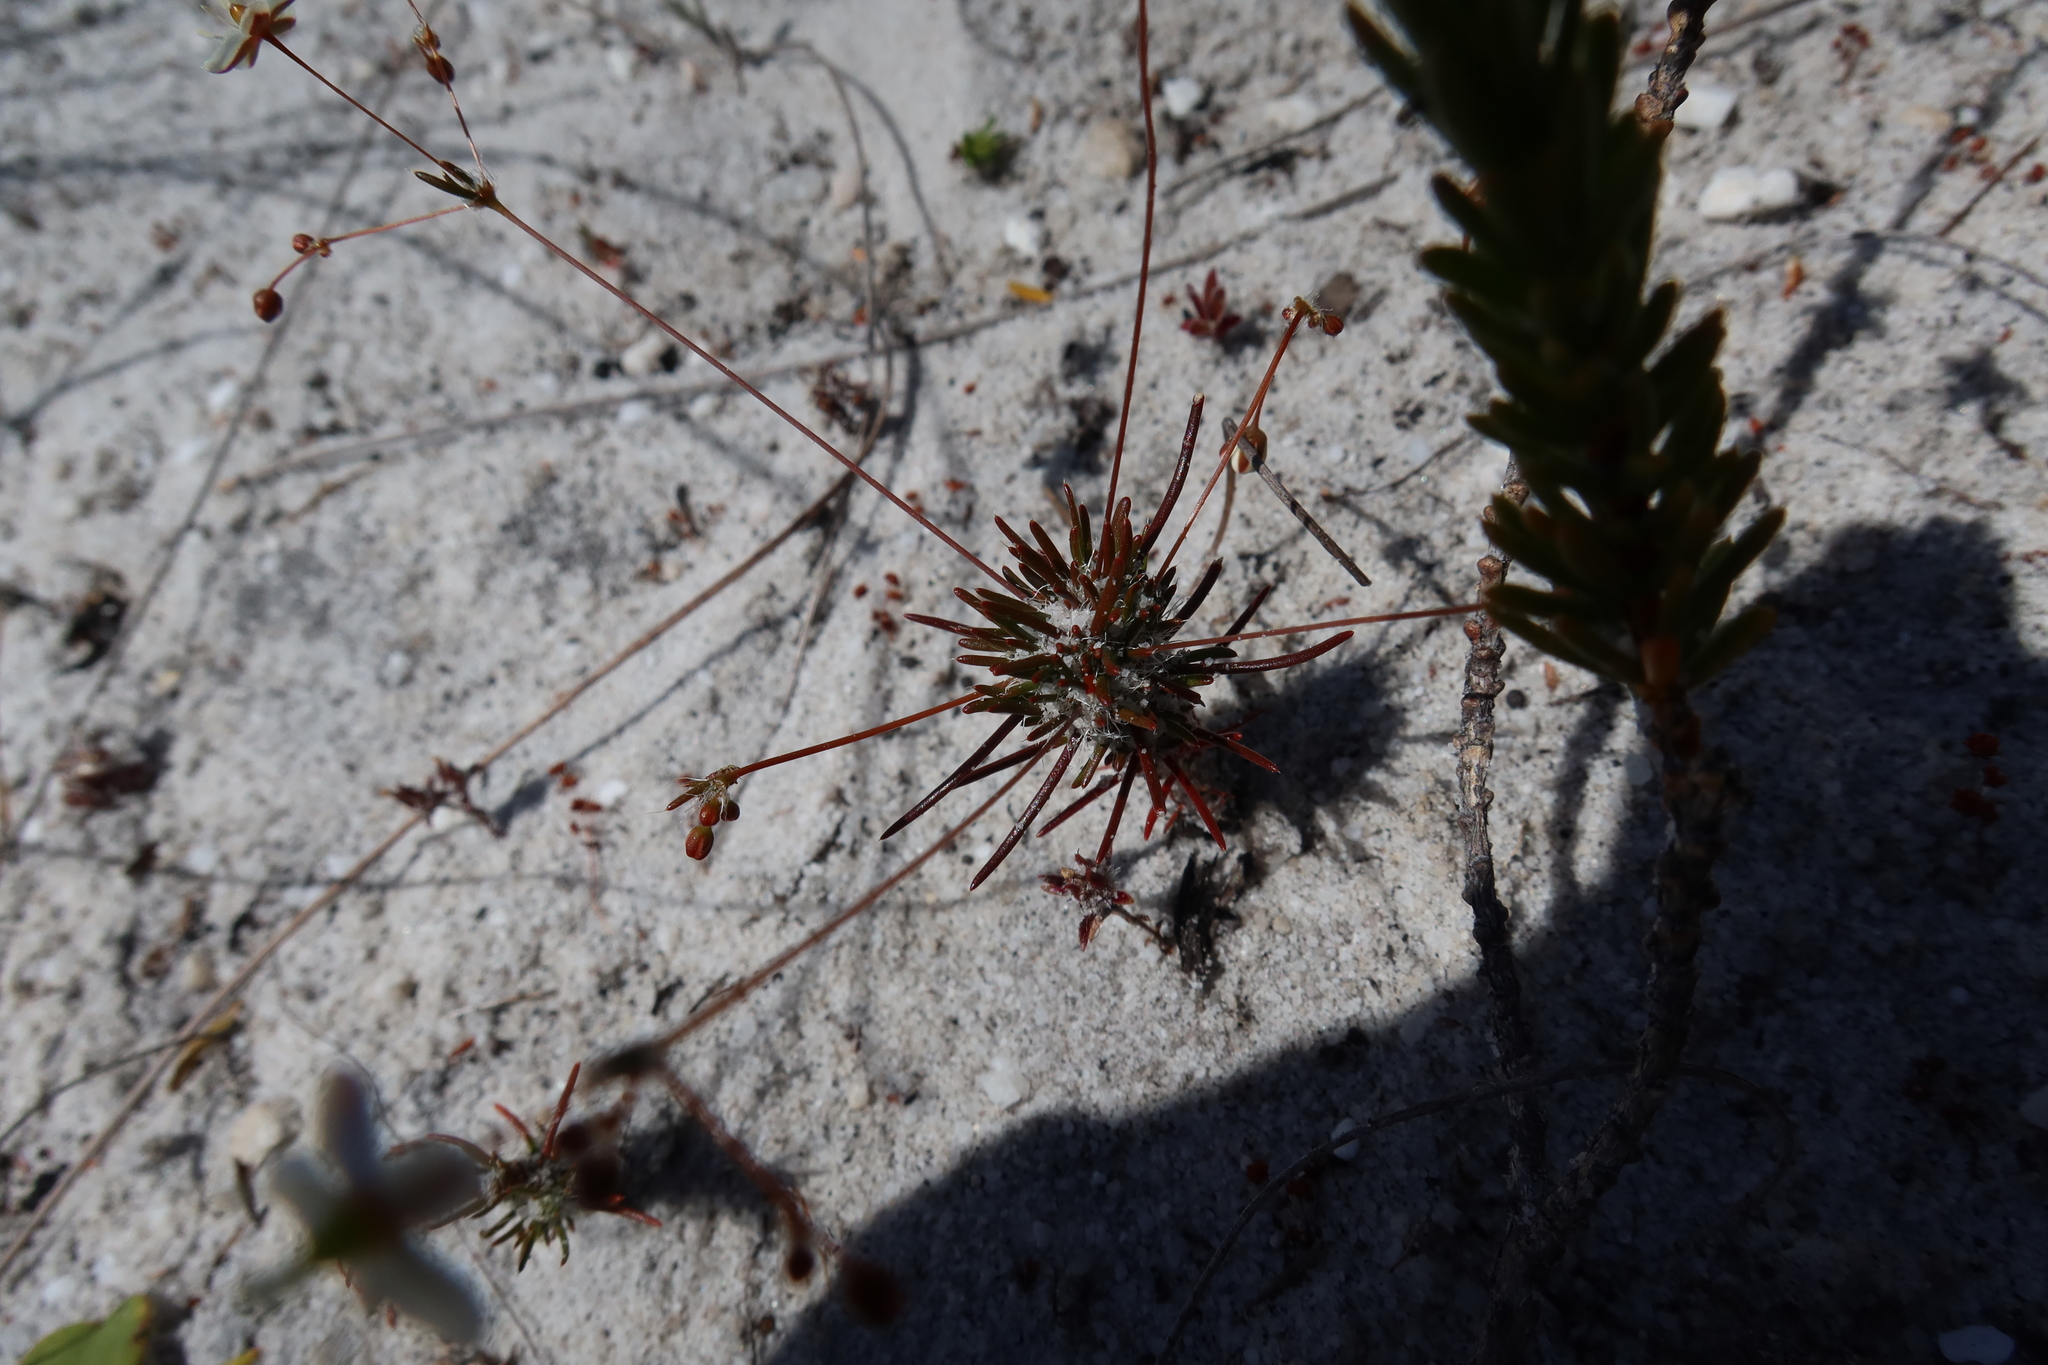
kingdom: Plantae
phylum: Tracheophyta
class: Magnoliopsida
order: Caryophyllales
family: Molluginaceae
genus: Pharnaceum
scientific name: Pharnaceum elongatum
